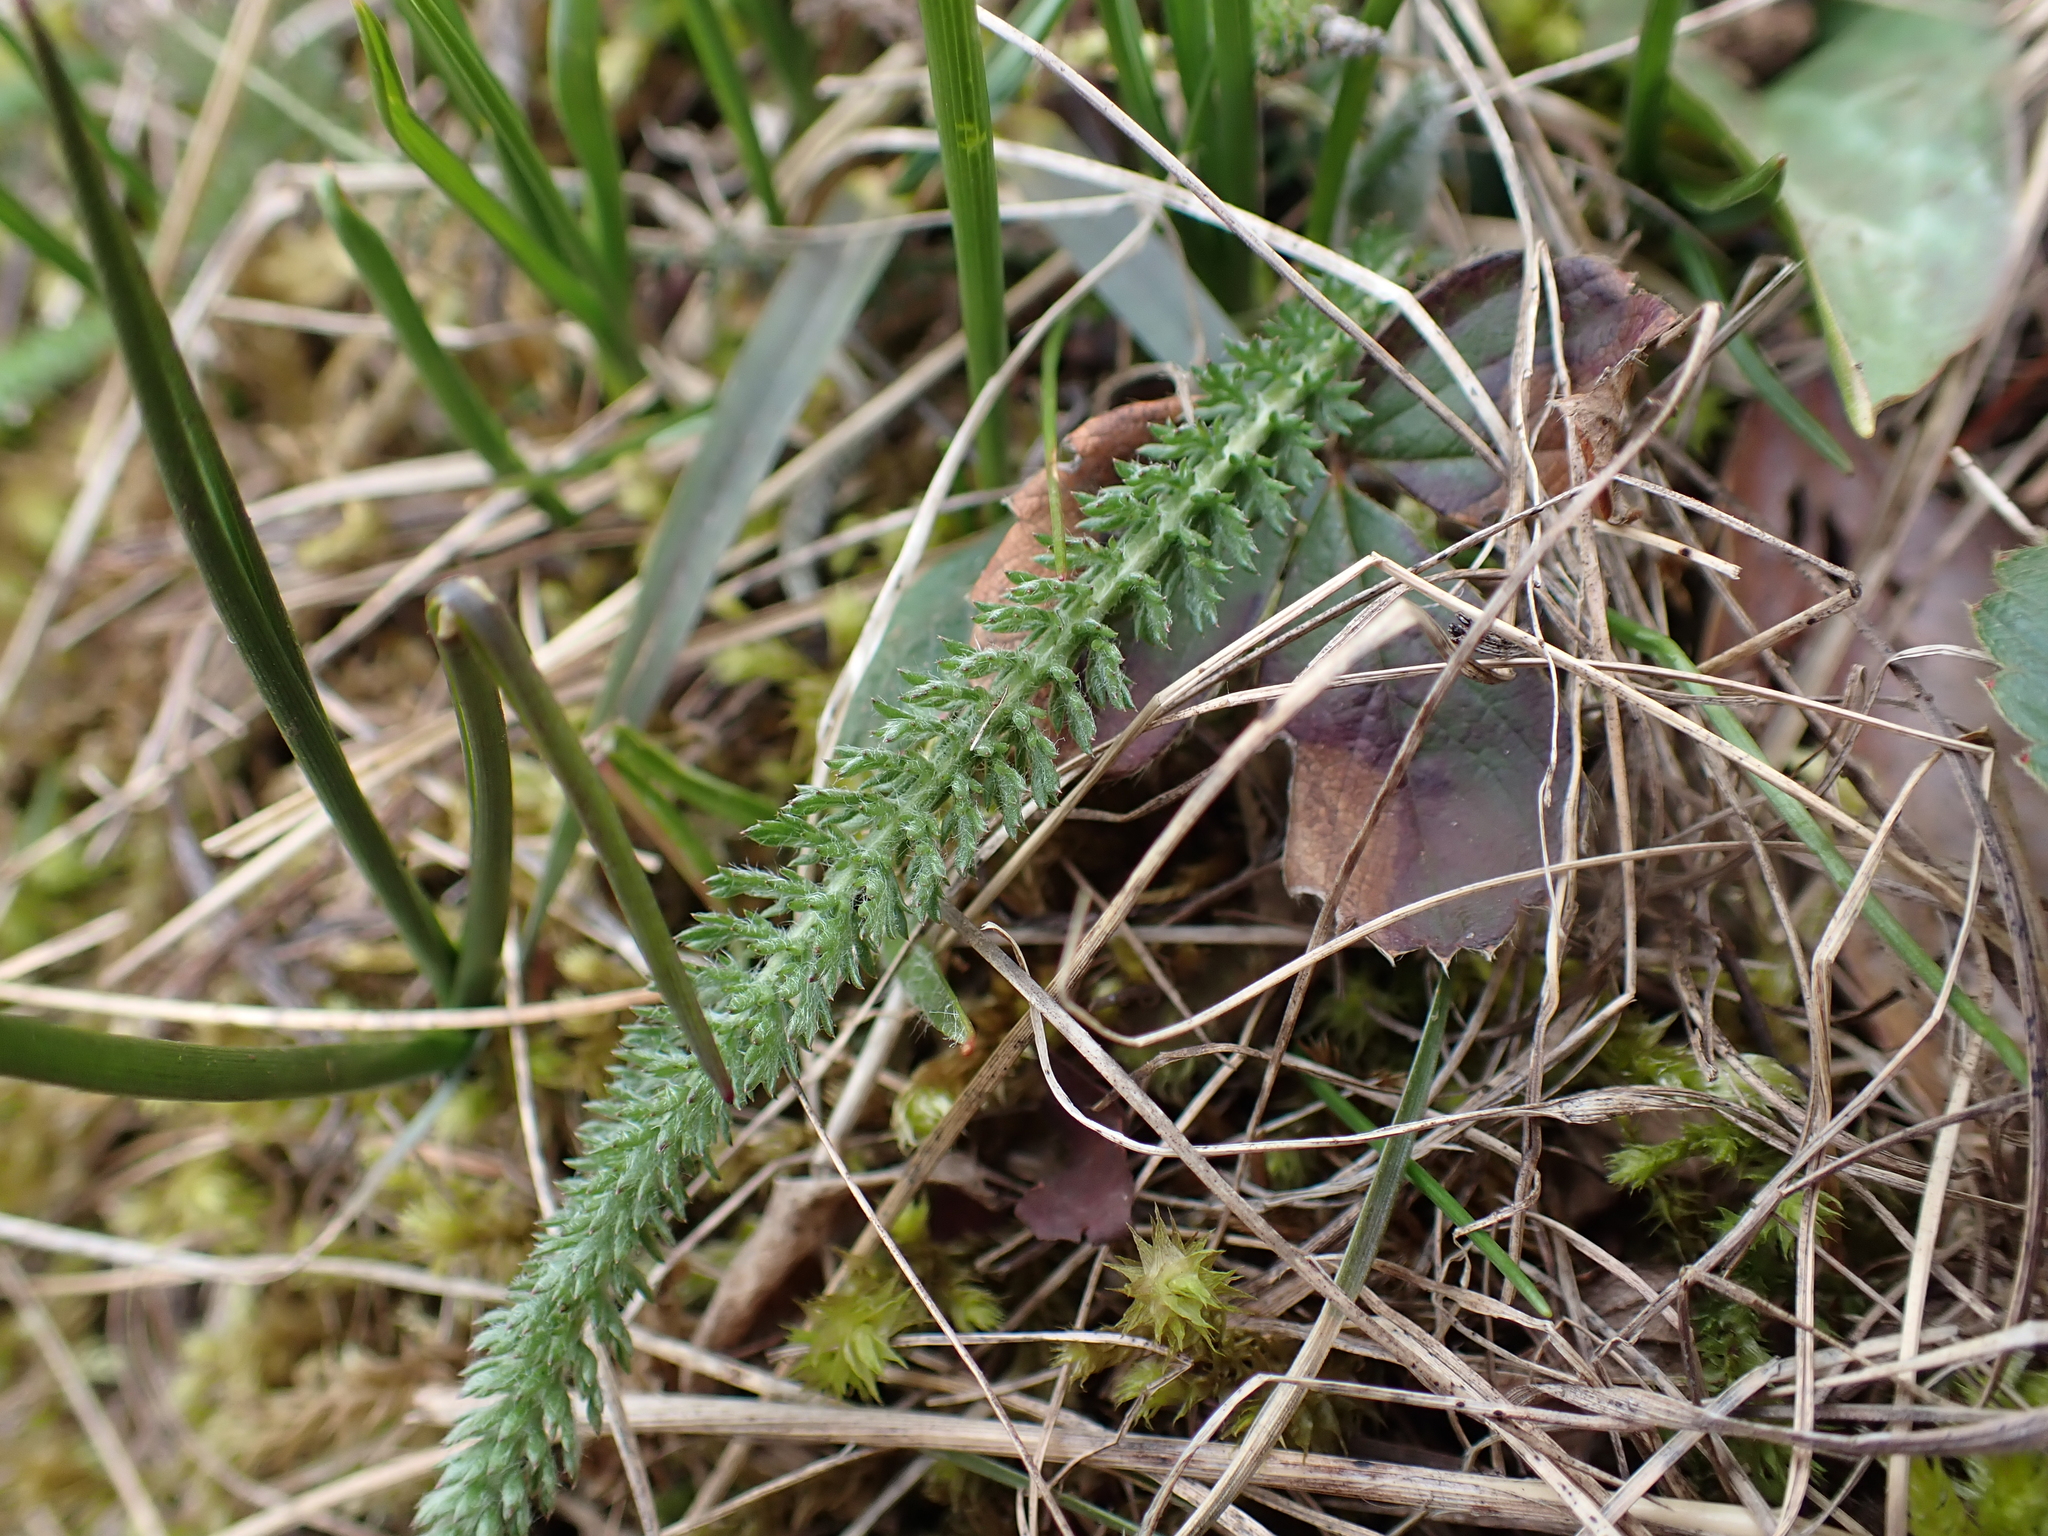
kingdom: Plantae
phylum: Tracheophyta
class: Magnoliopsida
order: Asterales
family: Asteraceae
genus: Achillea
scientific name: Achillea millefolium
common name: Yarrow
